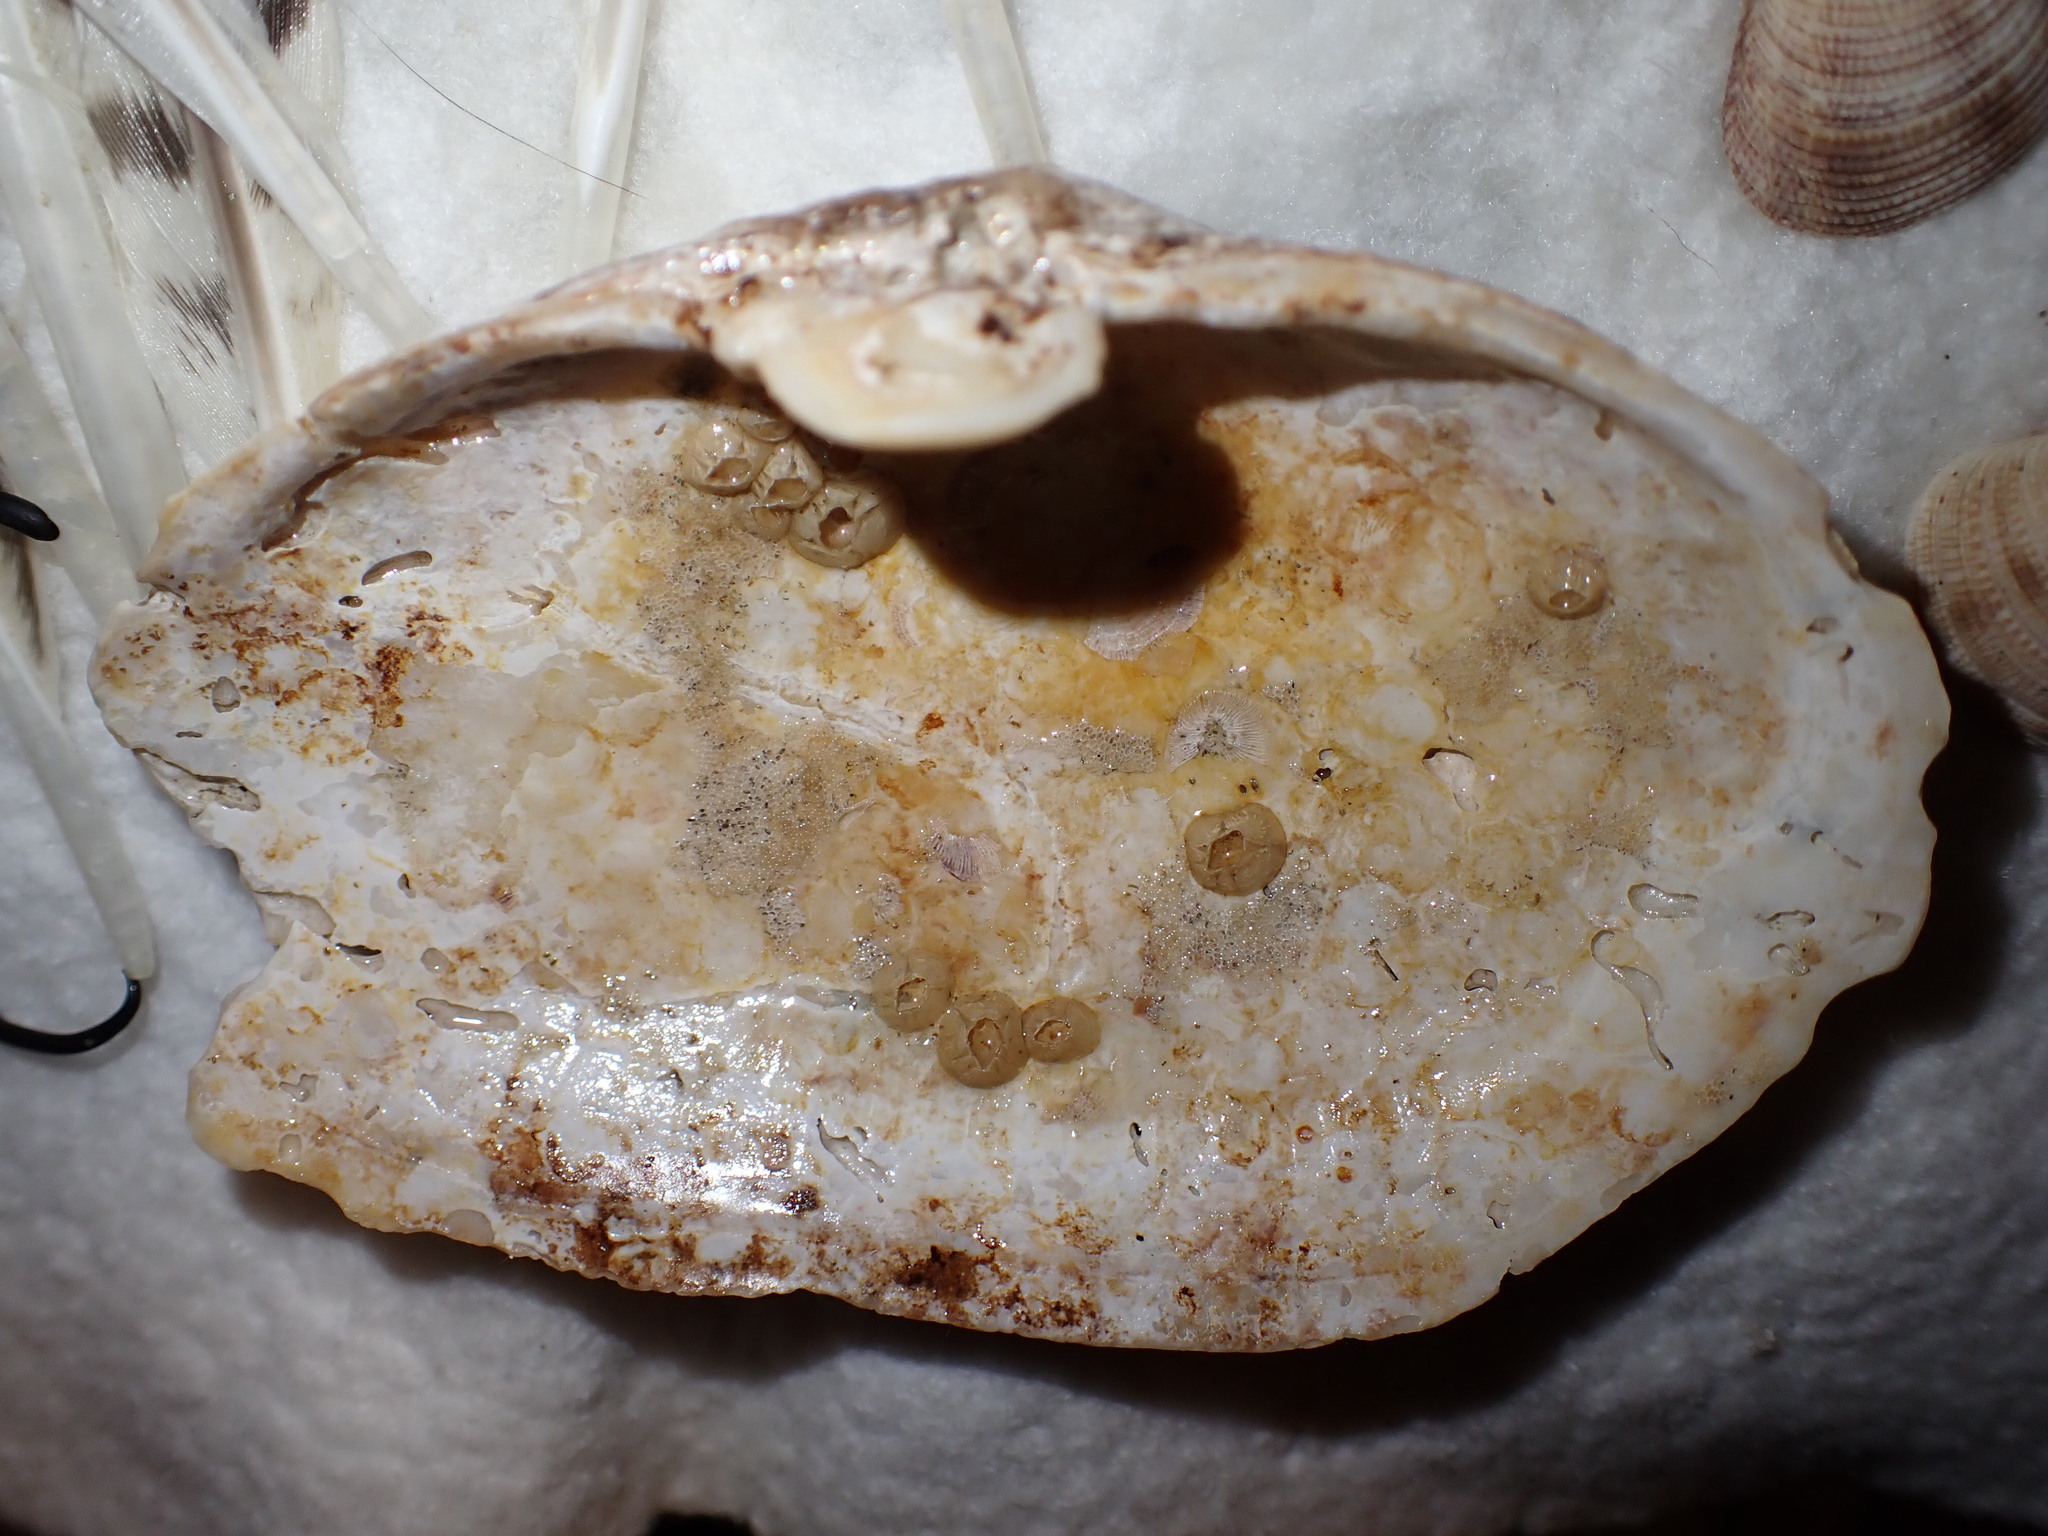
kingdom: Animalia
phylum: Mollusca
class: Bivalvia
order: Myida
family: Myidae
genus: Mya
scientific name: Mya arenaria
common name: Soft-shelled clam
